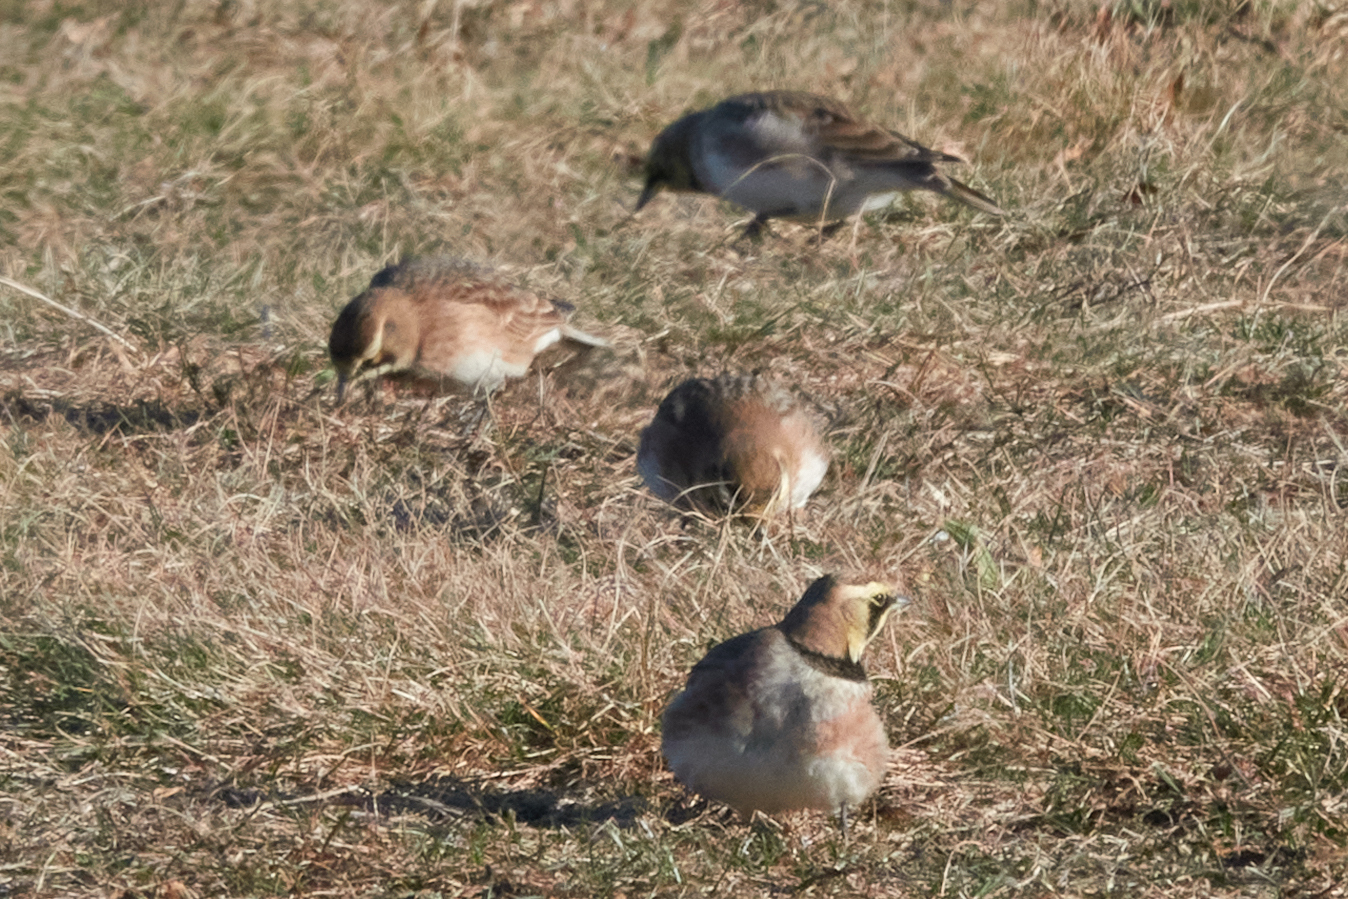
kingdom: Animalia
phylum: Chordata
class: Aves
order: Passeriformes
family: Alaudidae
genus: Eremophila
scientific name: Eremophila alpestris
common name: Horned lark
